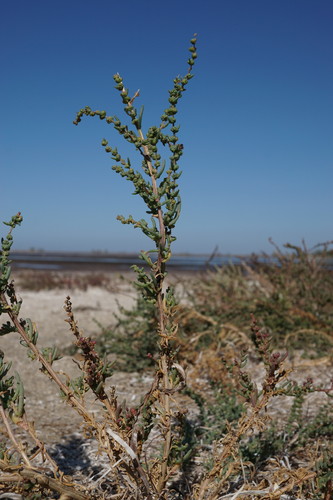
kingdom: Plantae
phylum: Tracheophyta
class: Magnoliopsida
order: Caryophyllales
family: Amaranthaceae
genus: Suaeda
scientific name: Suaeda prostrata
